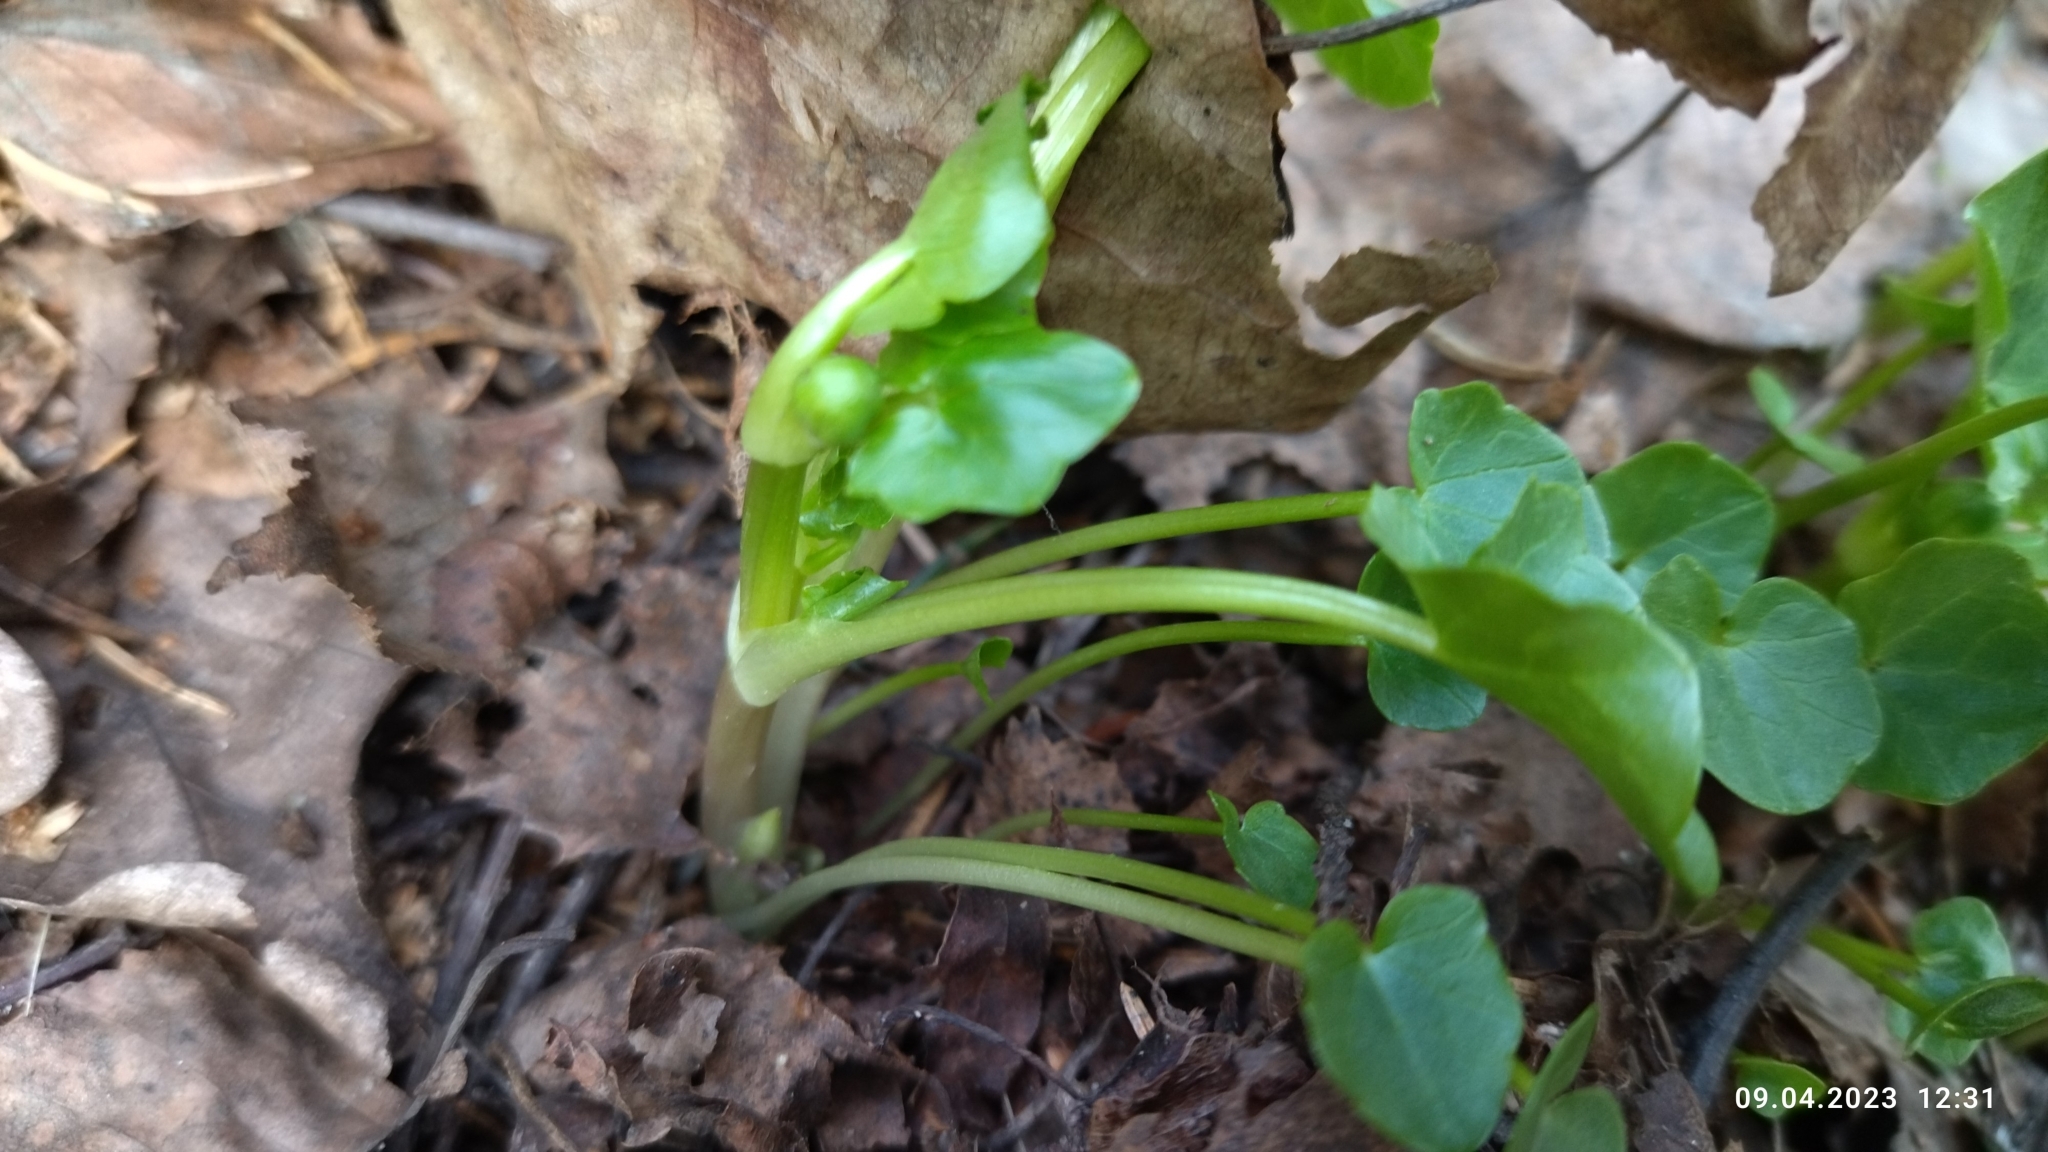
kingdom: Plantae
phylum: Tracheophyta
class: Magnoliopsida
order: Ranunculales
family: Ranunculaceae
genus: Ficaria
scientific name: Ficaria verna
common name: Lesser celandine
